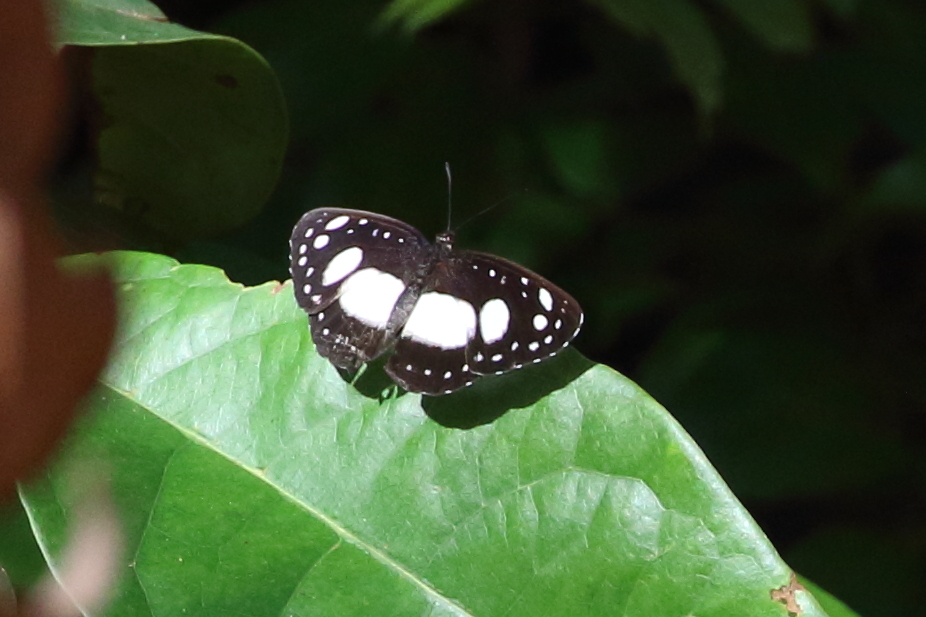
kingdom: Animalia
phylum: Arthropoda
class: Insecta
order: Lepidoptera
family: Nymphalidae
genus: Pantoporia
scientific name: Pantoporia venilia
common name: Cape york aeroplane
